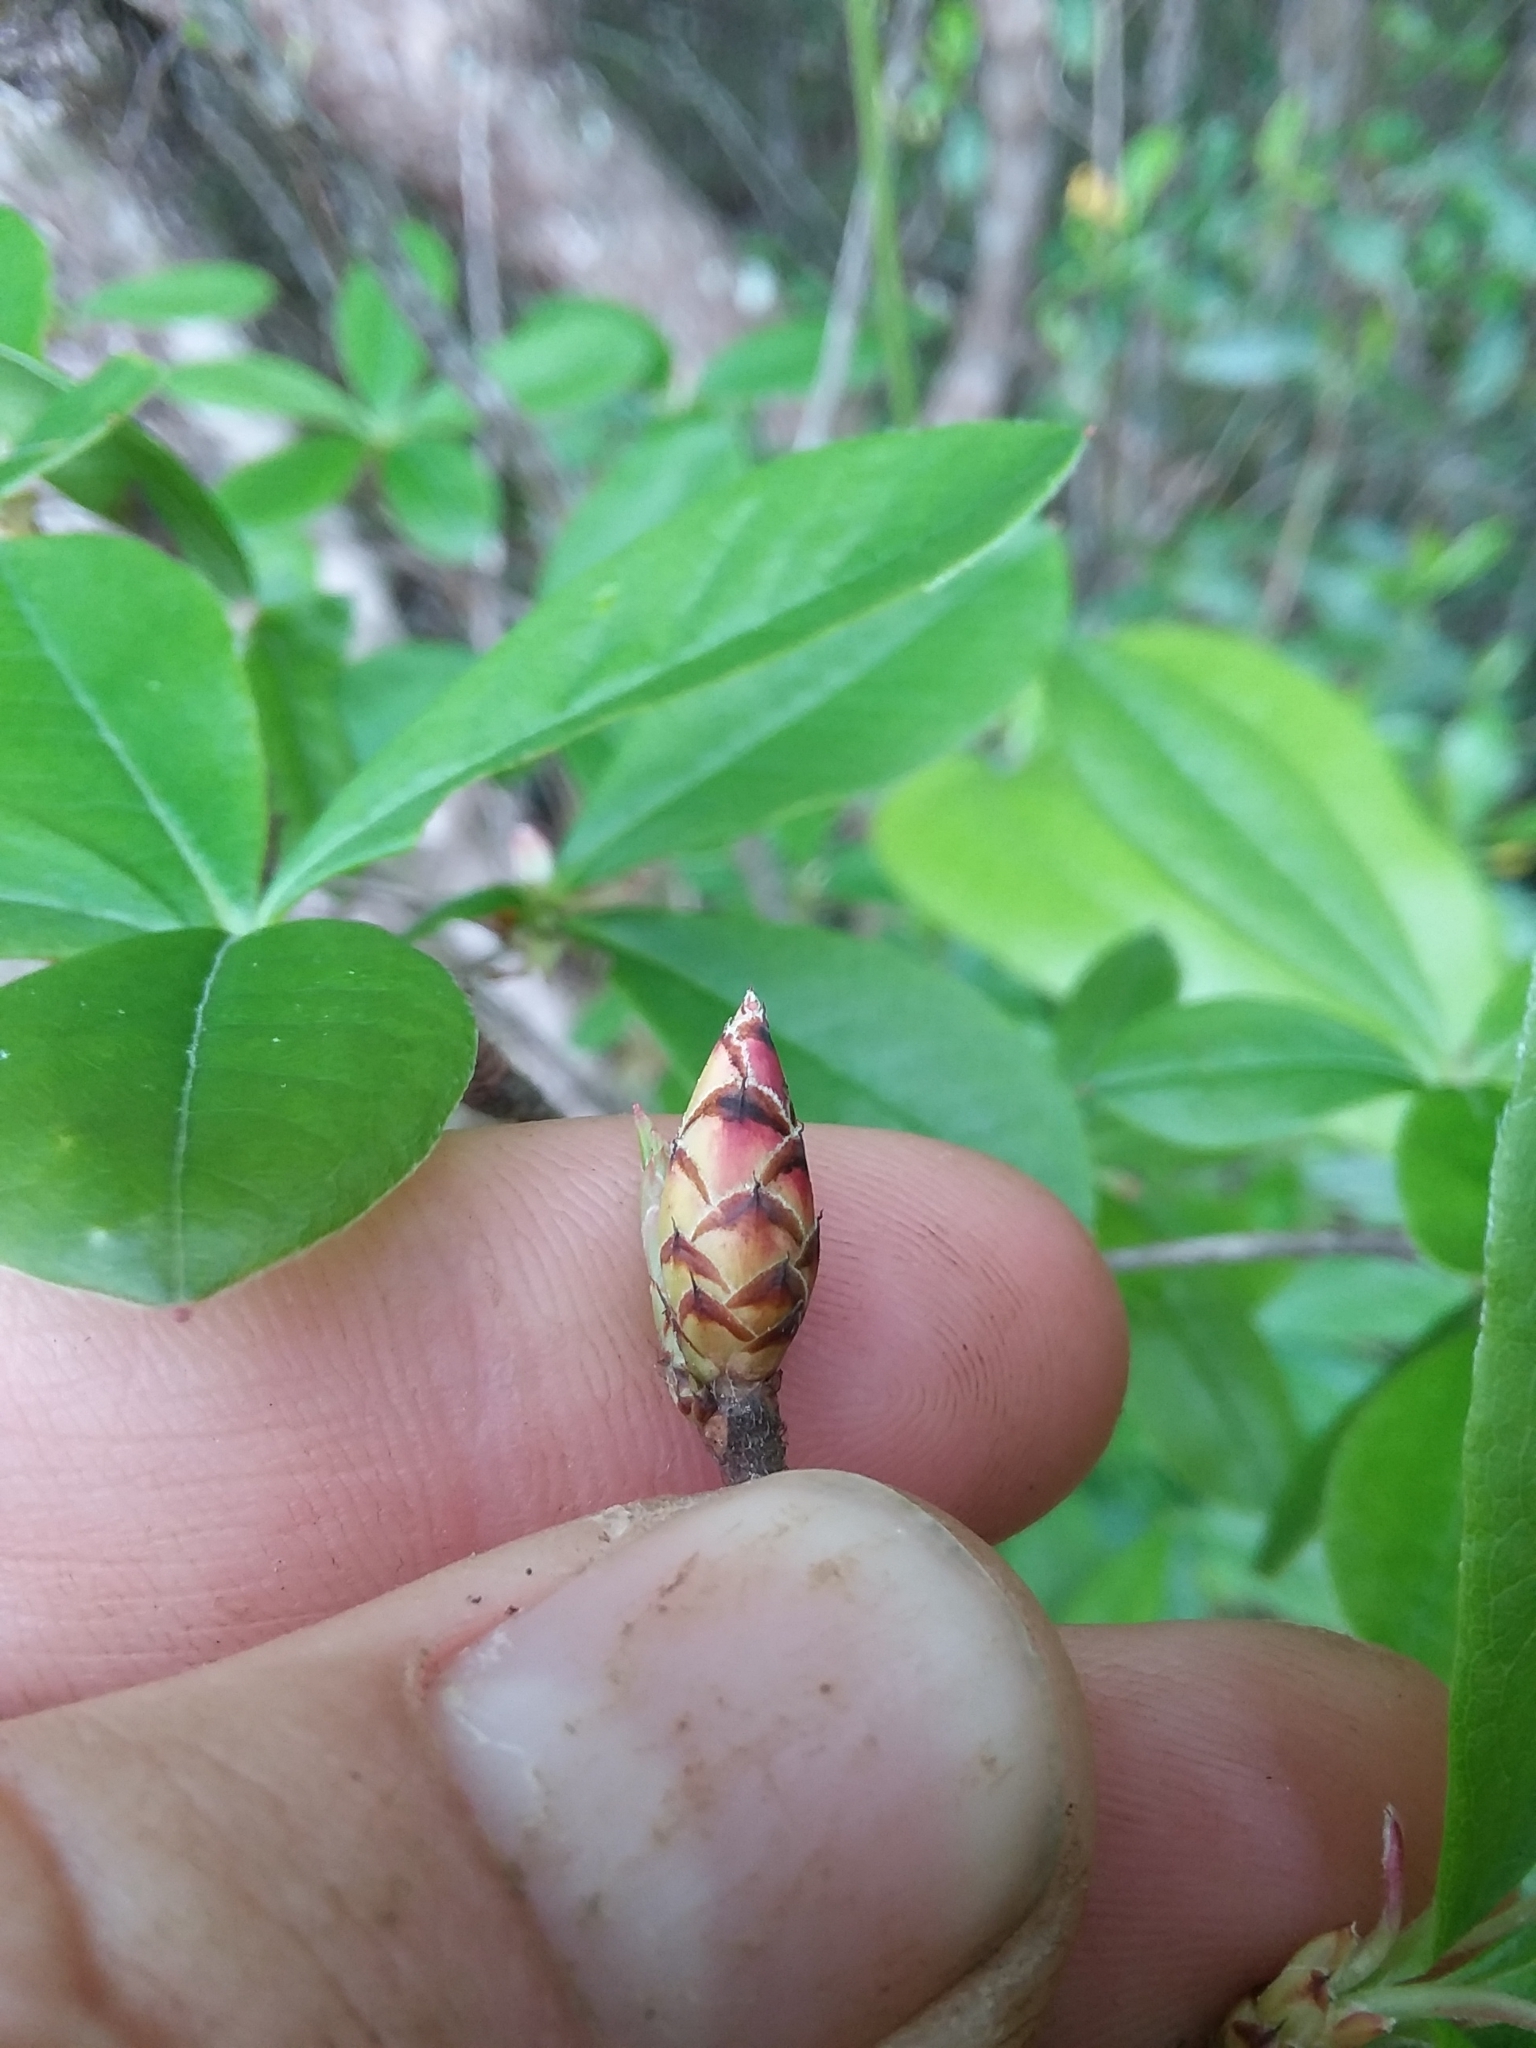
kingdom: Plantae
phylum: Tracheophyta
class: Magnoliopsida
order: Ericales
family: Ericaceae
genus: Rhododendron
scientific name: Rhododendron serrulatum
